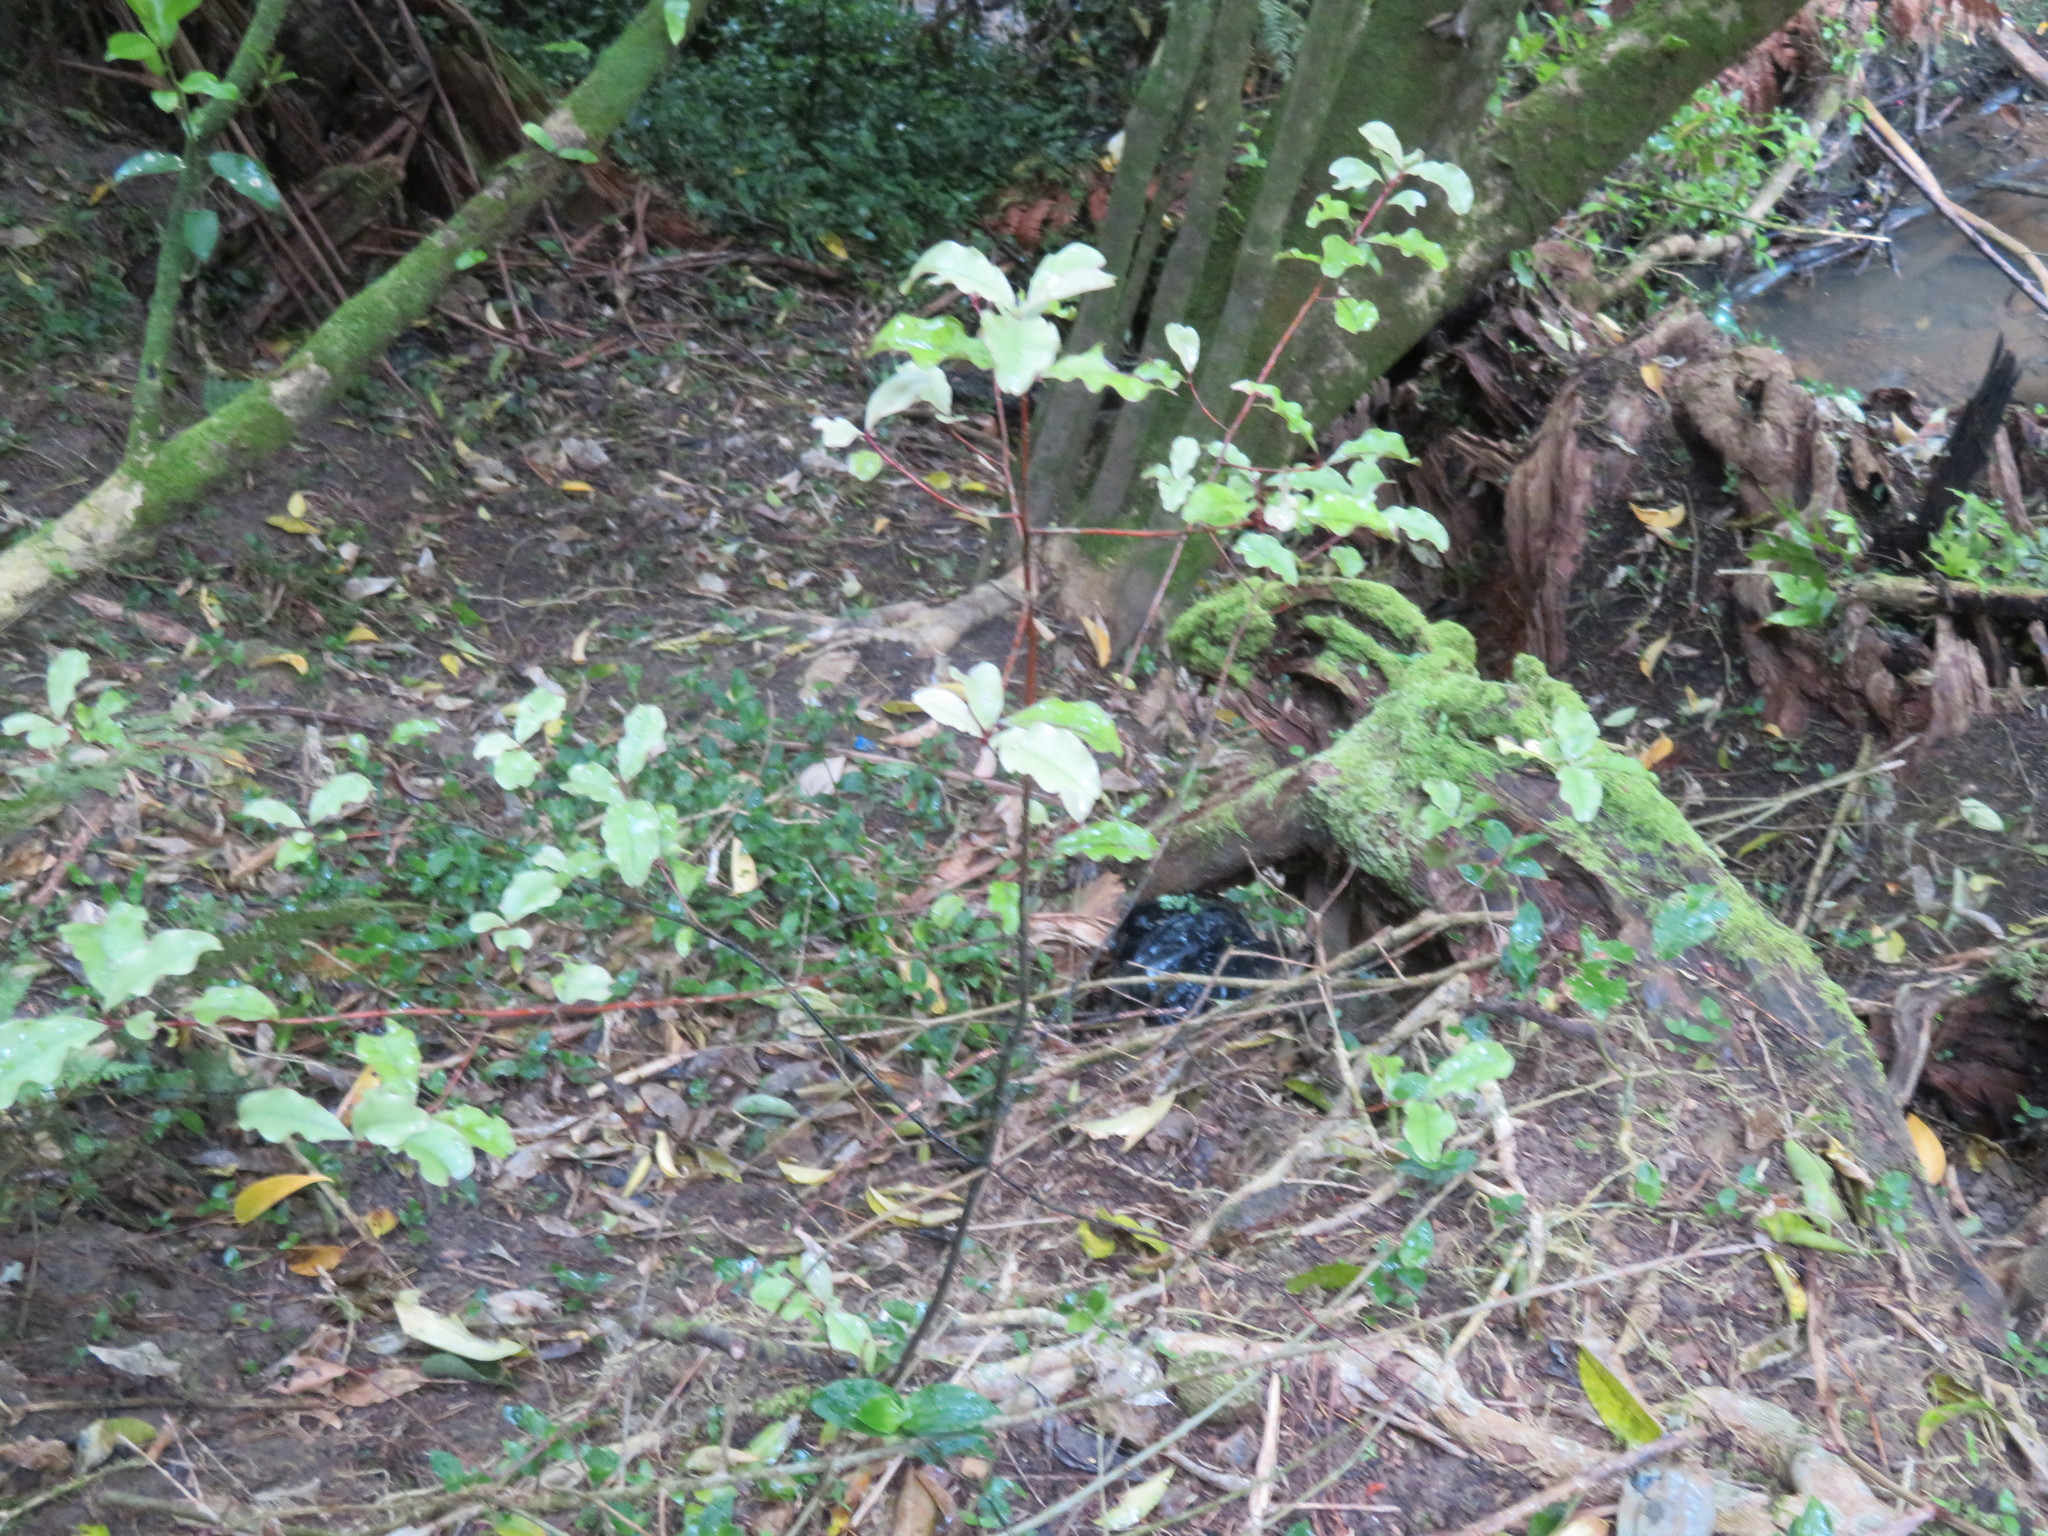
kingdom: Plantae
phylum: Tracheophyta
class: Magnoliopsida
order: Ericales
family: Primulaceae
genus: Myrsine
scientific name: Myrsine australis
